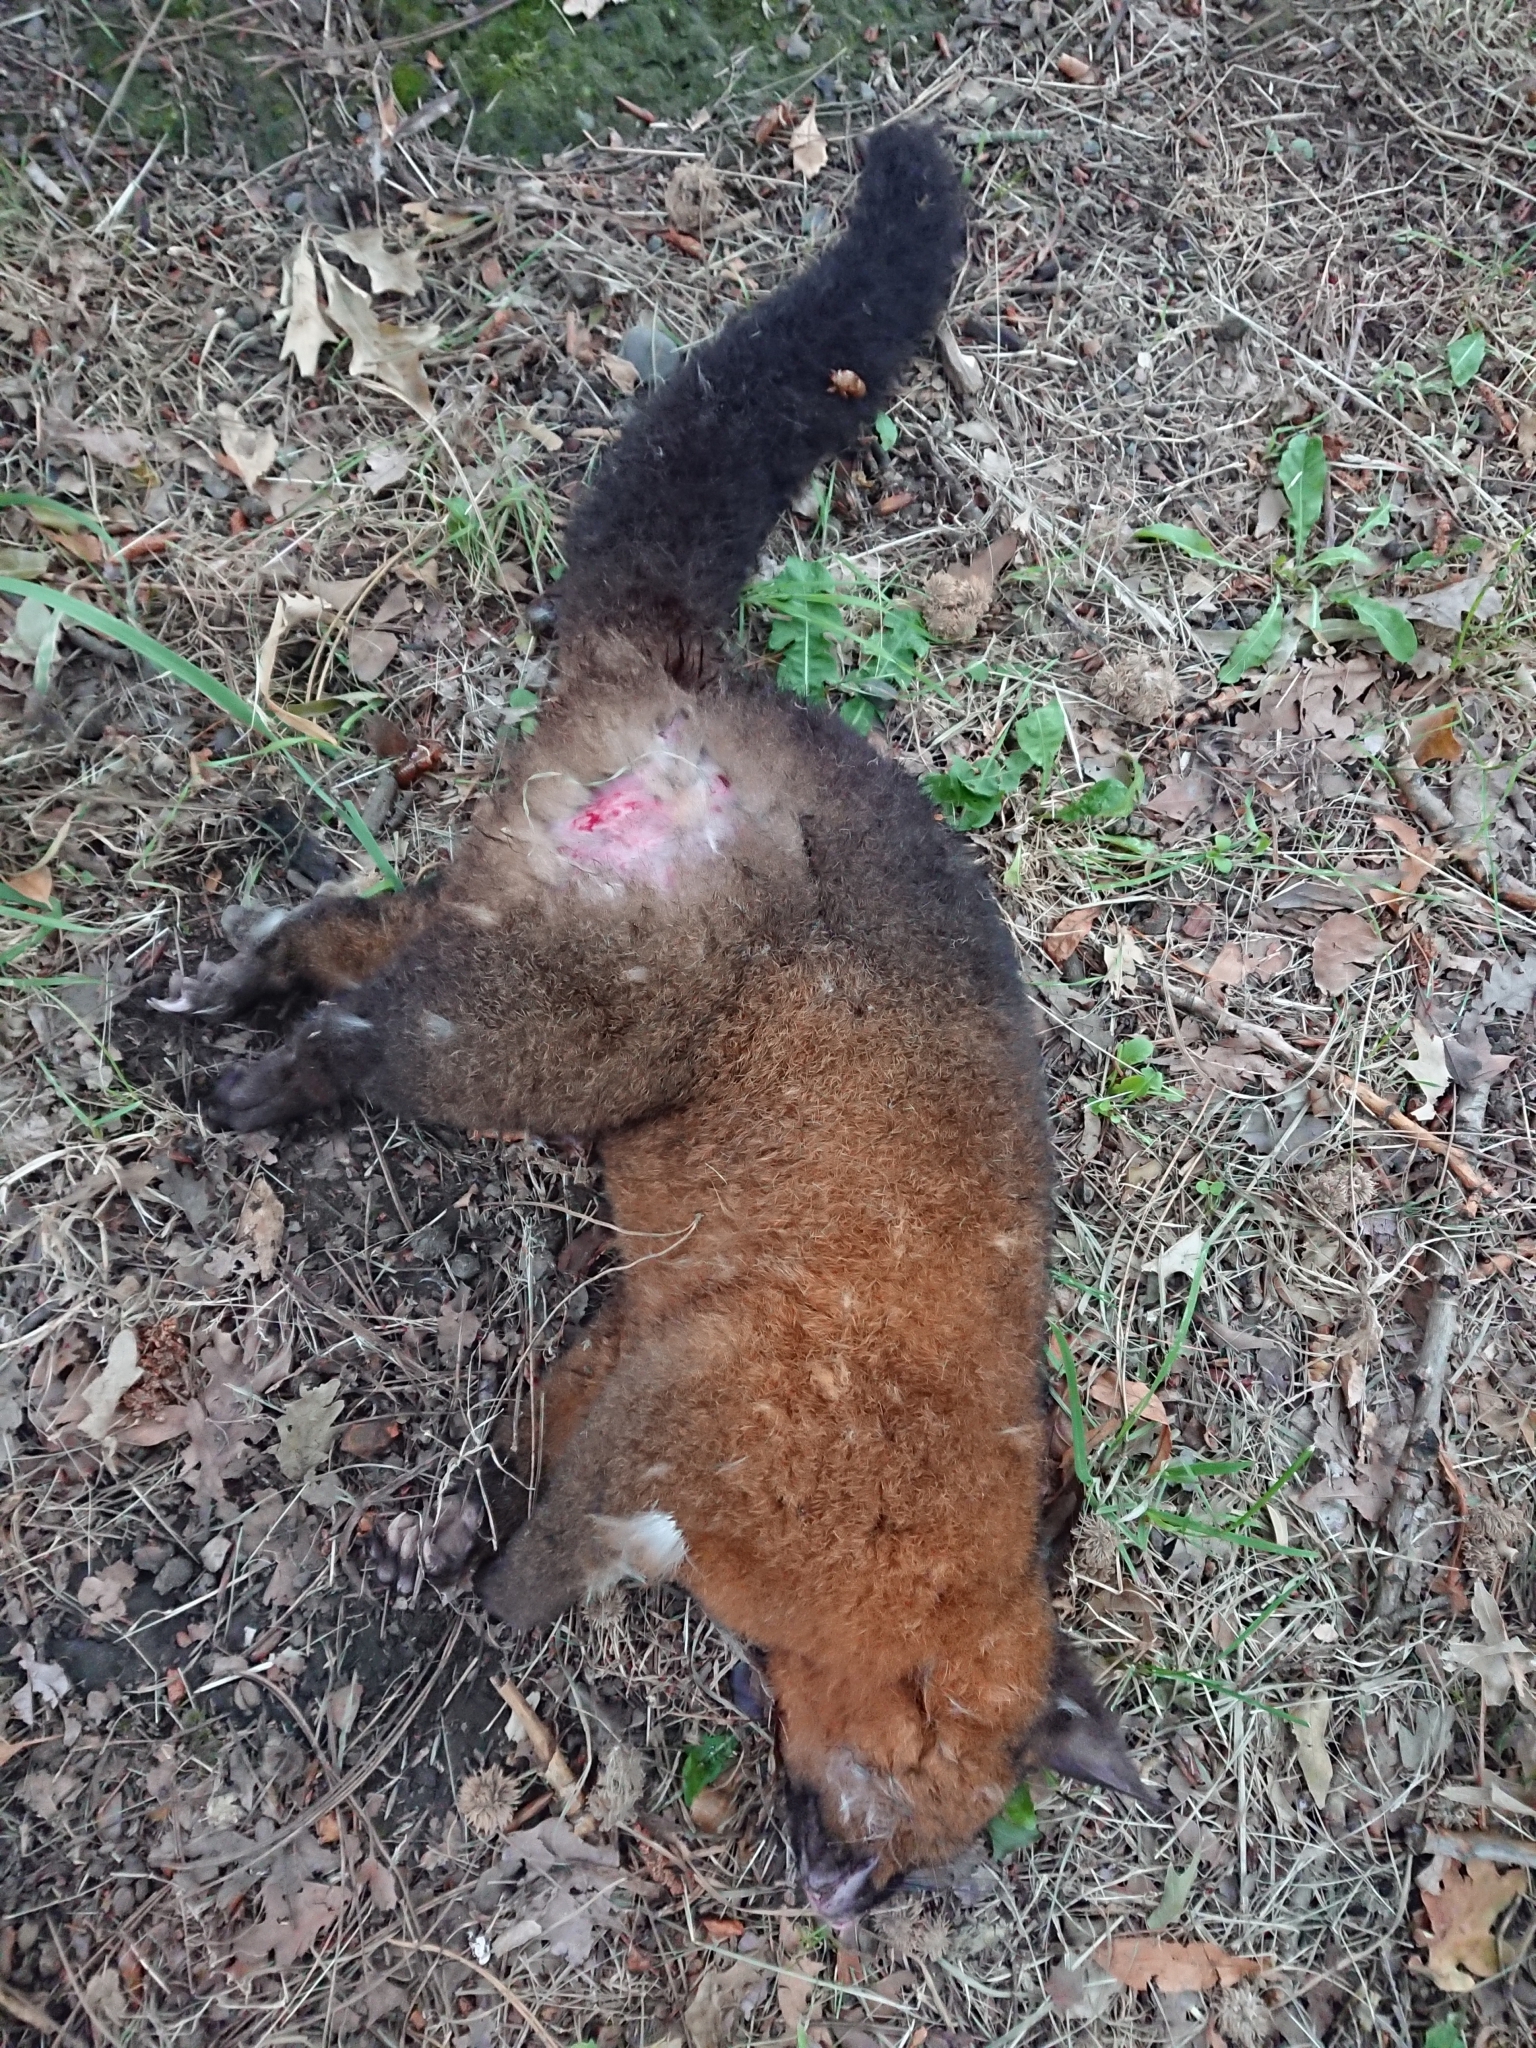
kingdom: Animalia
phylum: Chordata
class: Mammalia
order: Diprotodontia
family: Phalangeridae
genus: Trichosurus
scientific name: Trichosurus vulpecula
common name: Common brushtail
